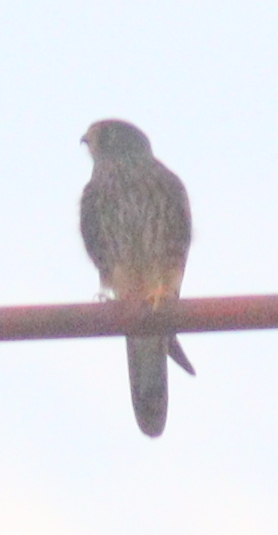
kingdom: Animalia
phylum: Chordata
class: Aves
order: Falconiformes
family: Falconidae
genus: Falco
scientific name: Falco tinnunculus
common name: Common kestrel
